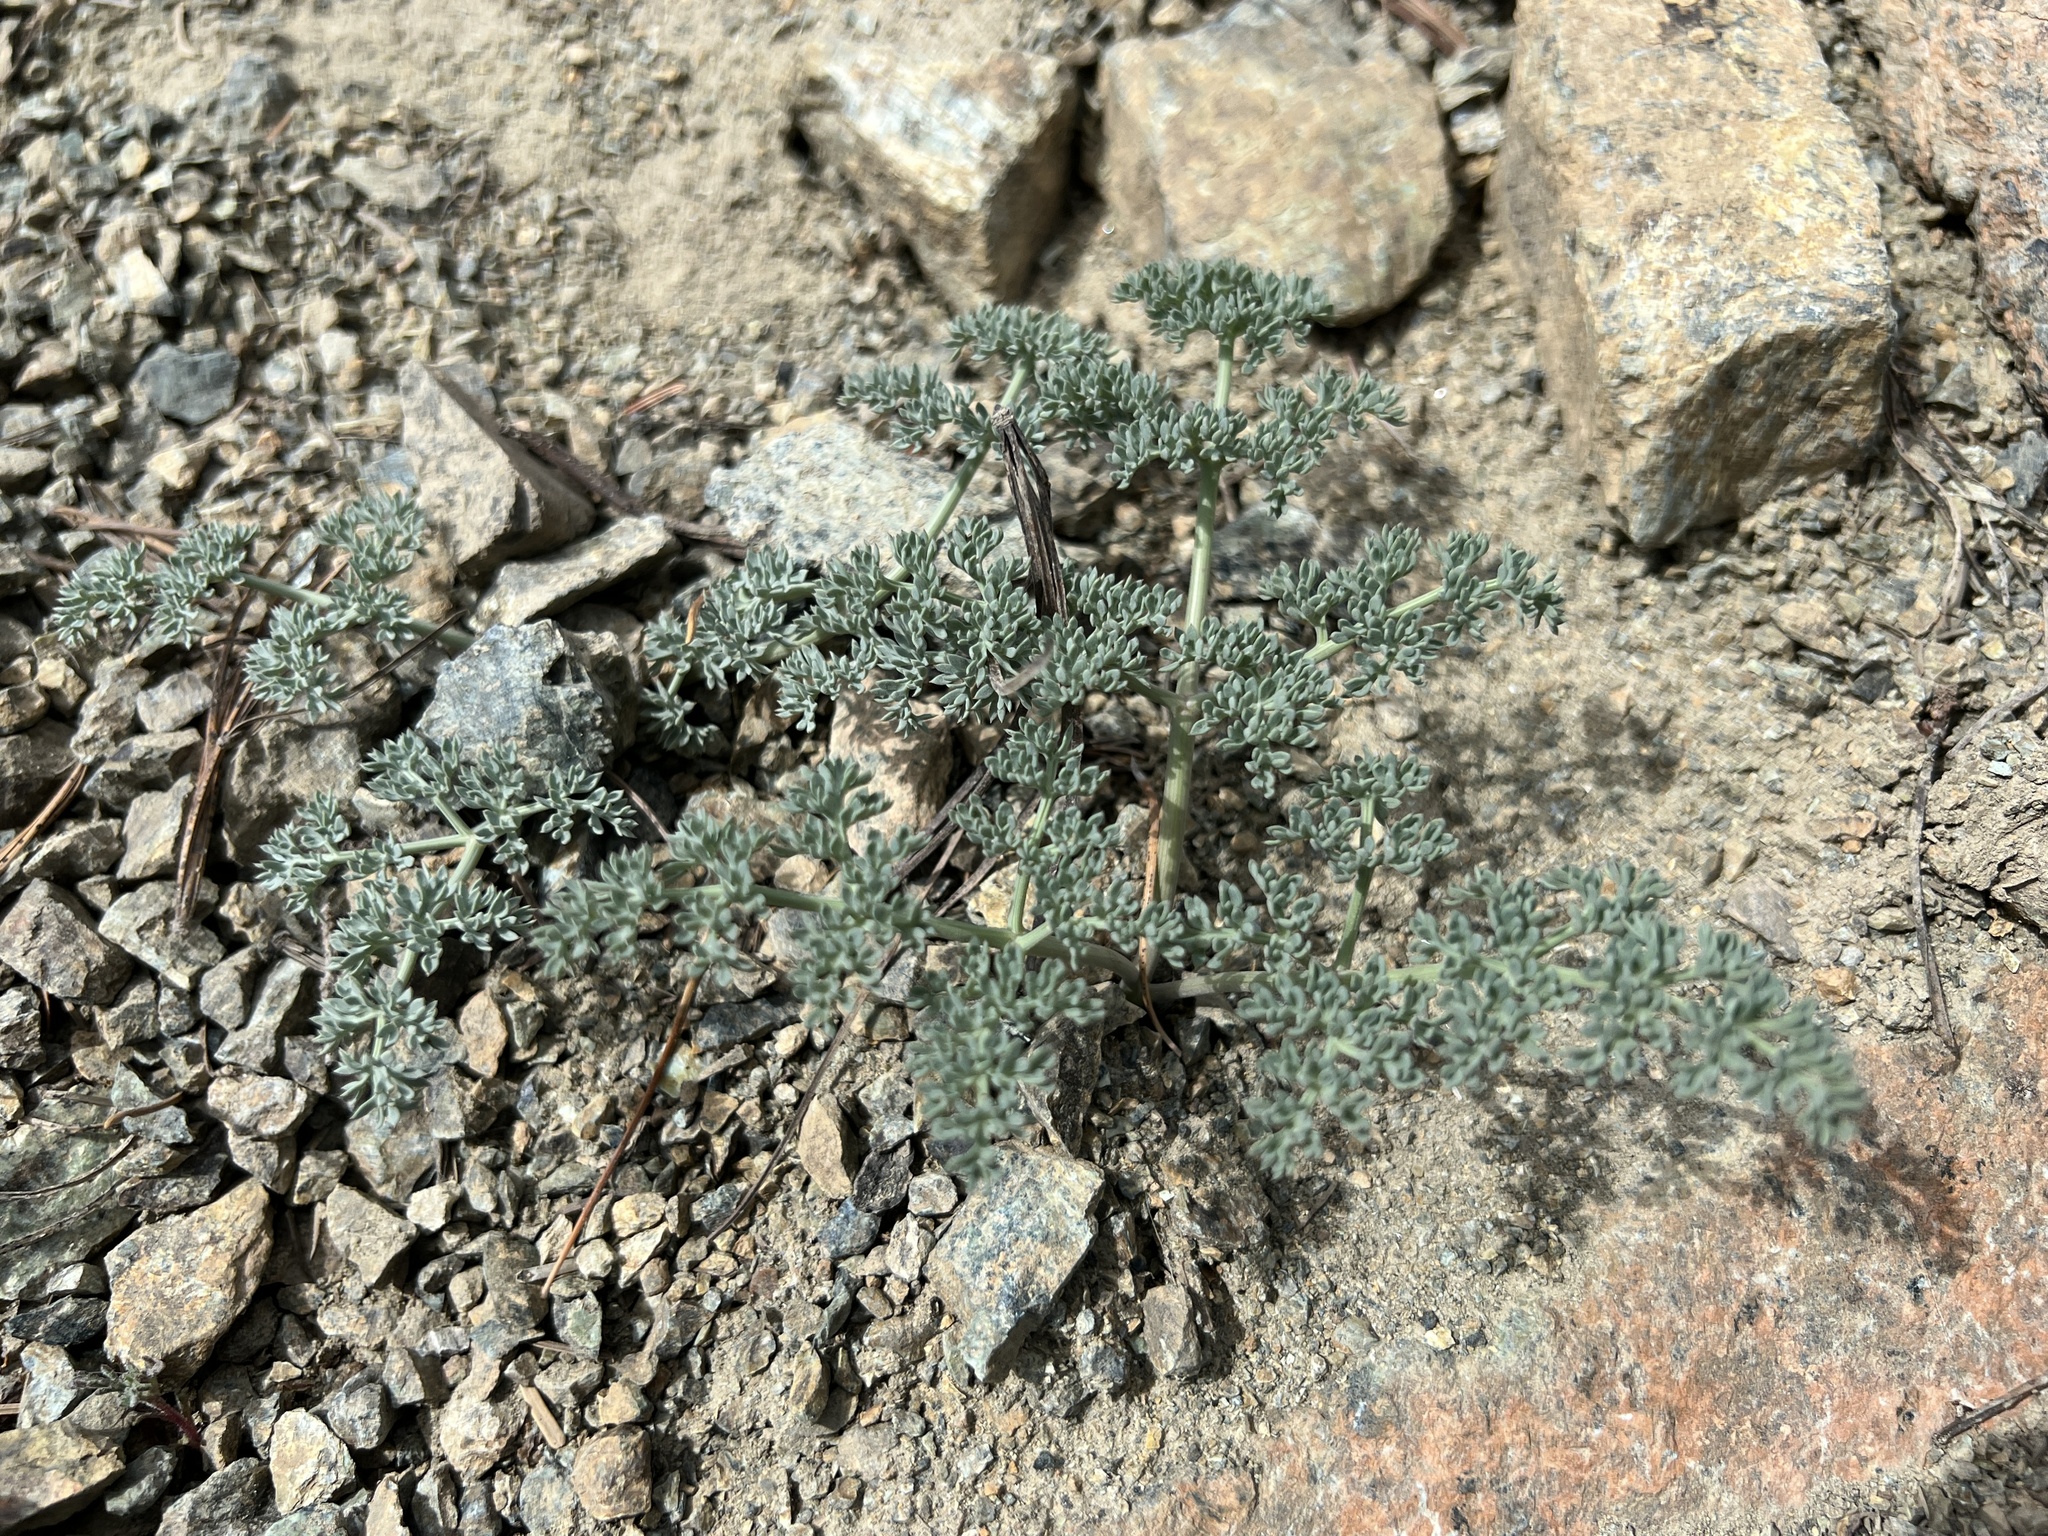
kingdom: Plantae
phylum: Tracheophyta
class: Magnoliopsida
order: Apiales
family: Apiaceae
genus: Lomatium
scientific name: Lomatium cuspidatum
